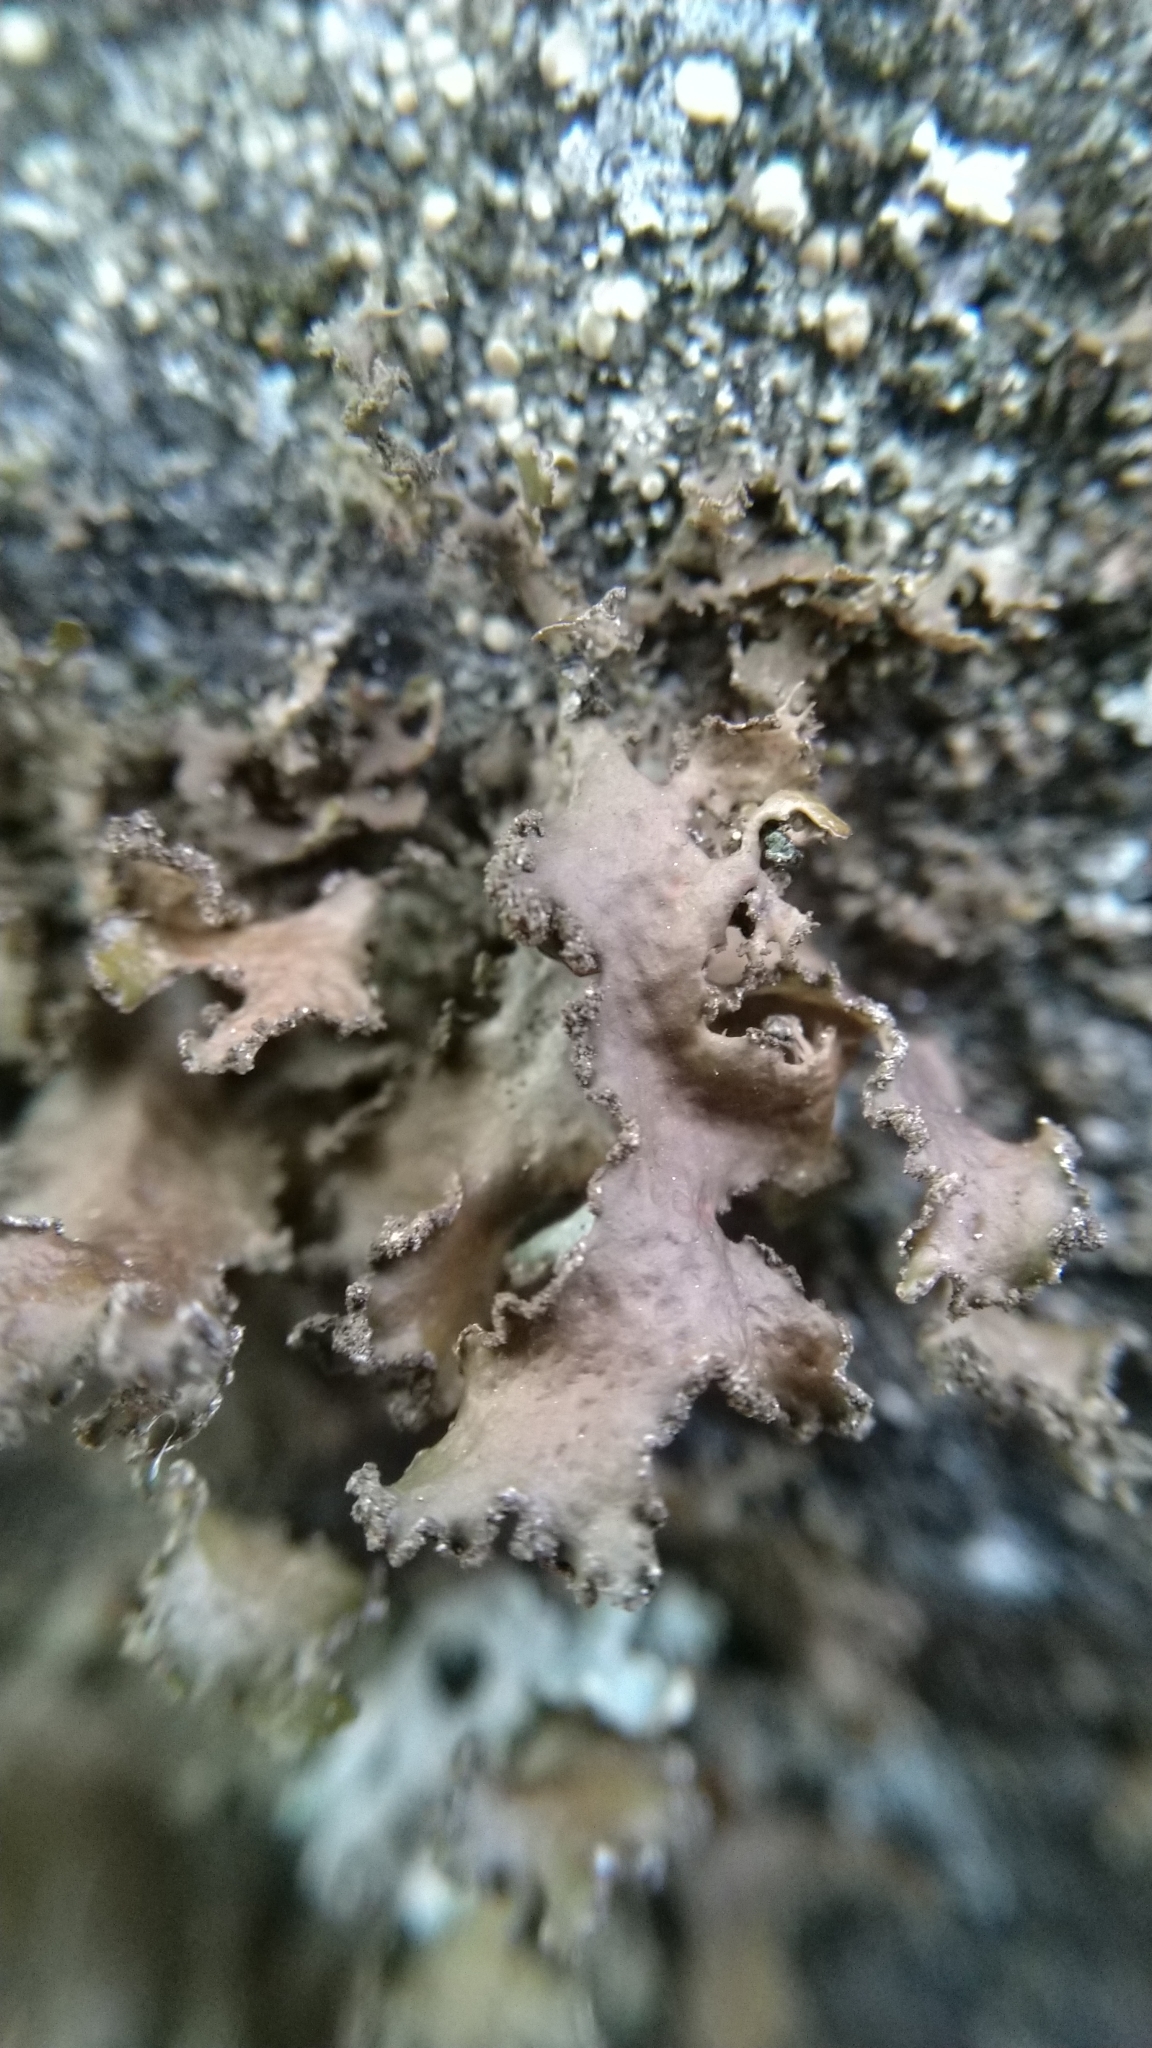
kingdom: Fungi
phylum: Ascomycota
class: Lecanoromycetes
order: Lecanorales
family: Parmeliaceae
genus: Nephromopsis
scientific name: Nephromopsis chlorophylla
